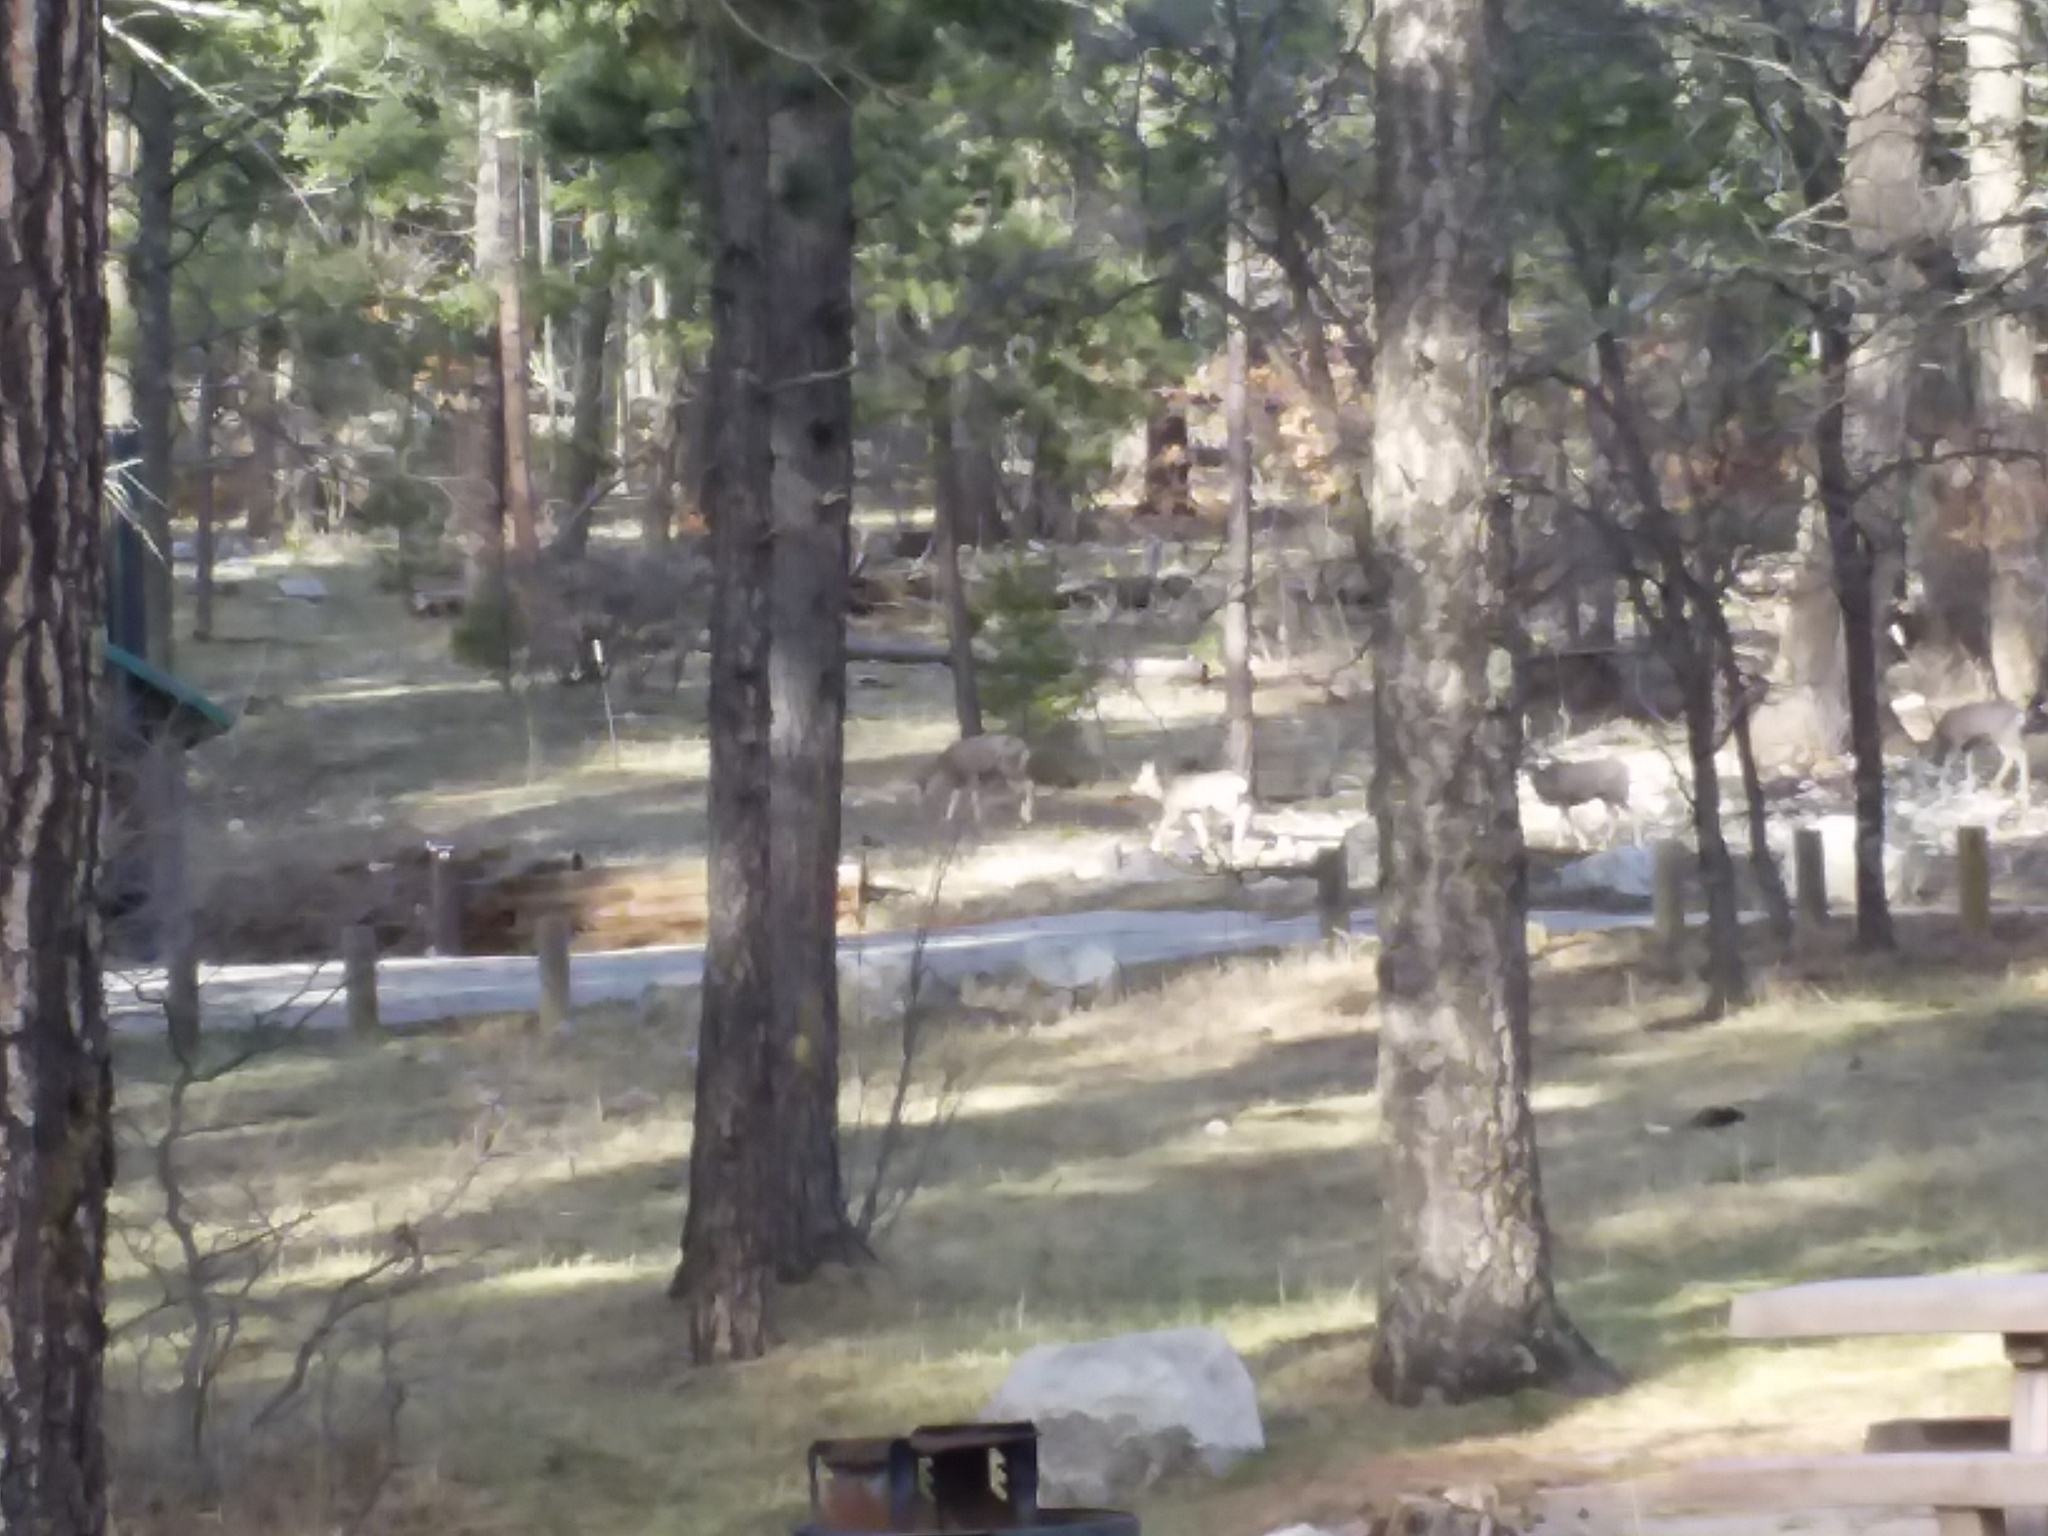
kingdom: Animalia
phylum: Chordata
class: Mammalia
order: Artiodactyla
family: Cervidae
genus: Odocoileus
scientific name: Odocoileus hemionus
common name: Mule deer
